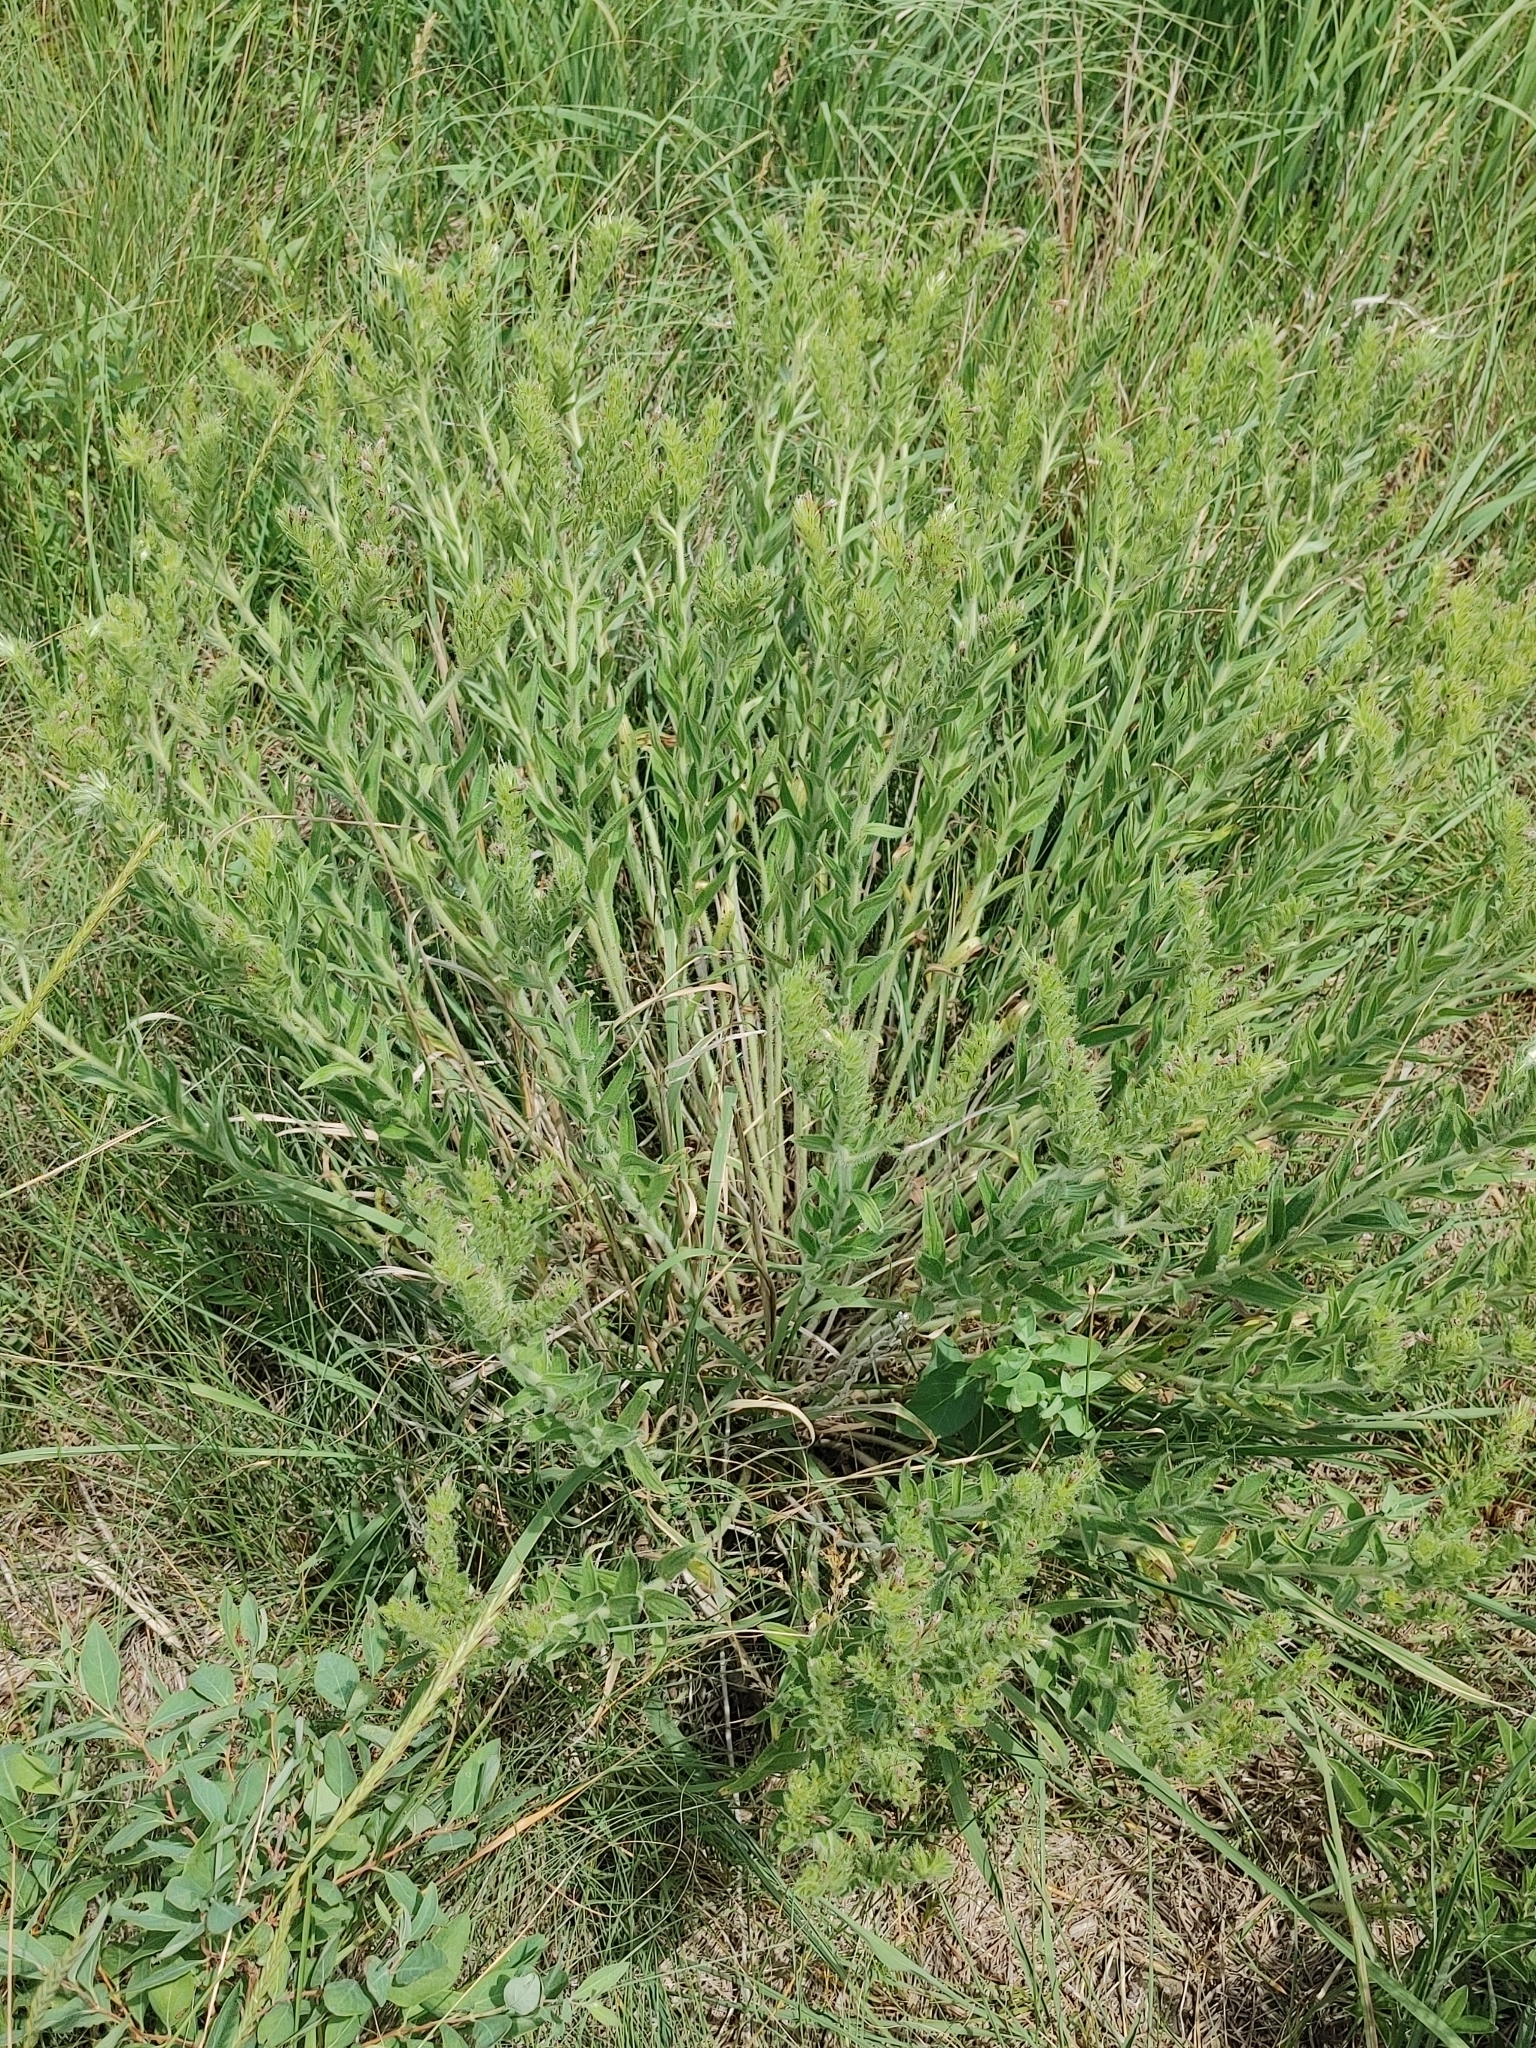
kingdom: Plantae
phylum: Tracheophyta
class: Magnoliopsida
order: Boraginales
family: Boraginaceae
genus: Lithospermum
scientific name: Lithospermum occidentale
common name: Western false gromwell
